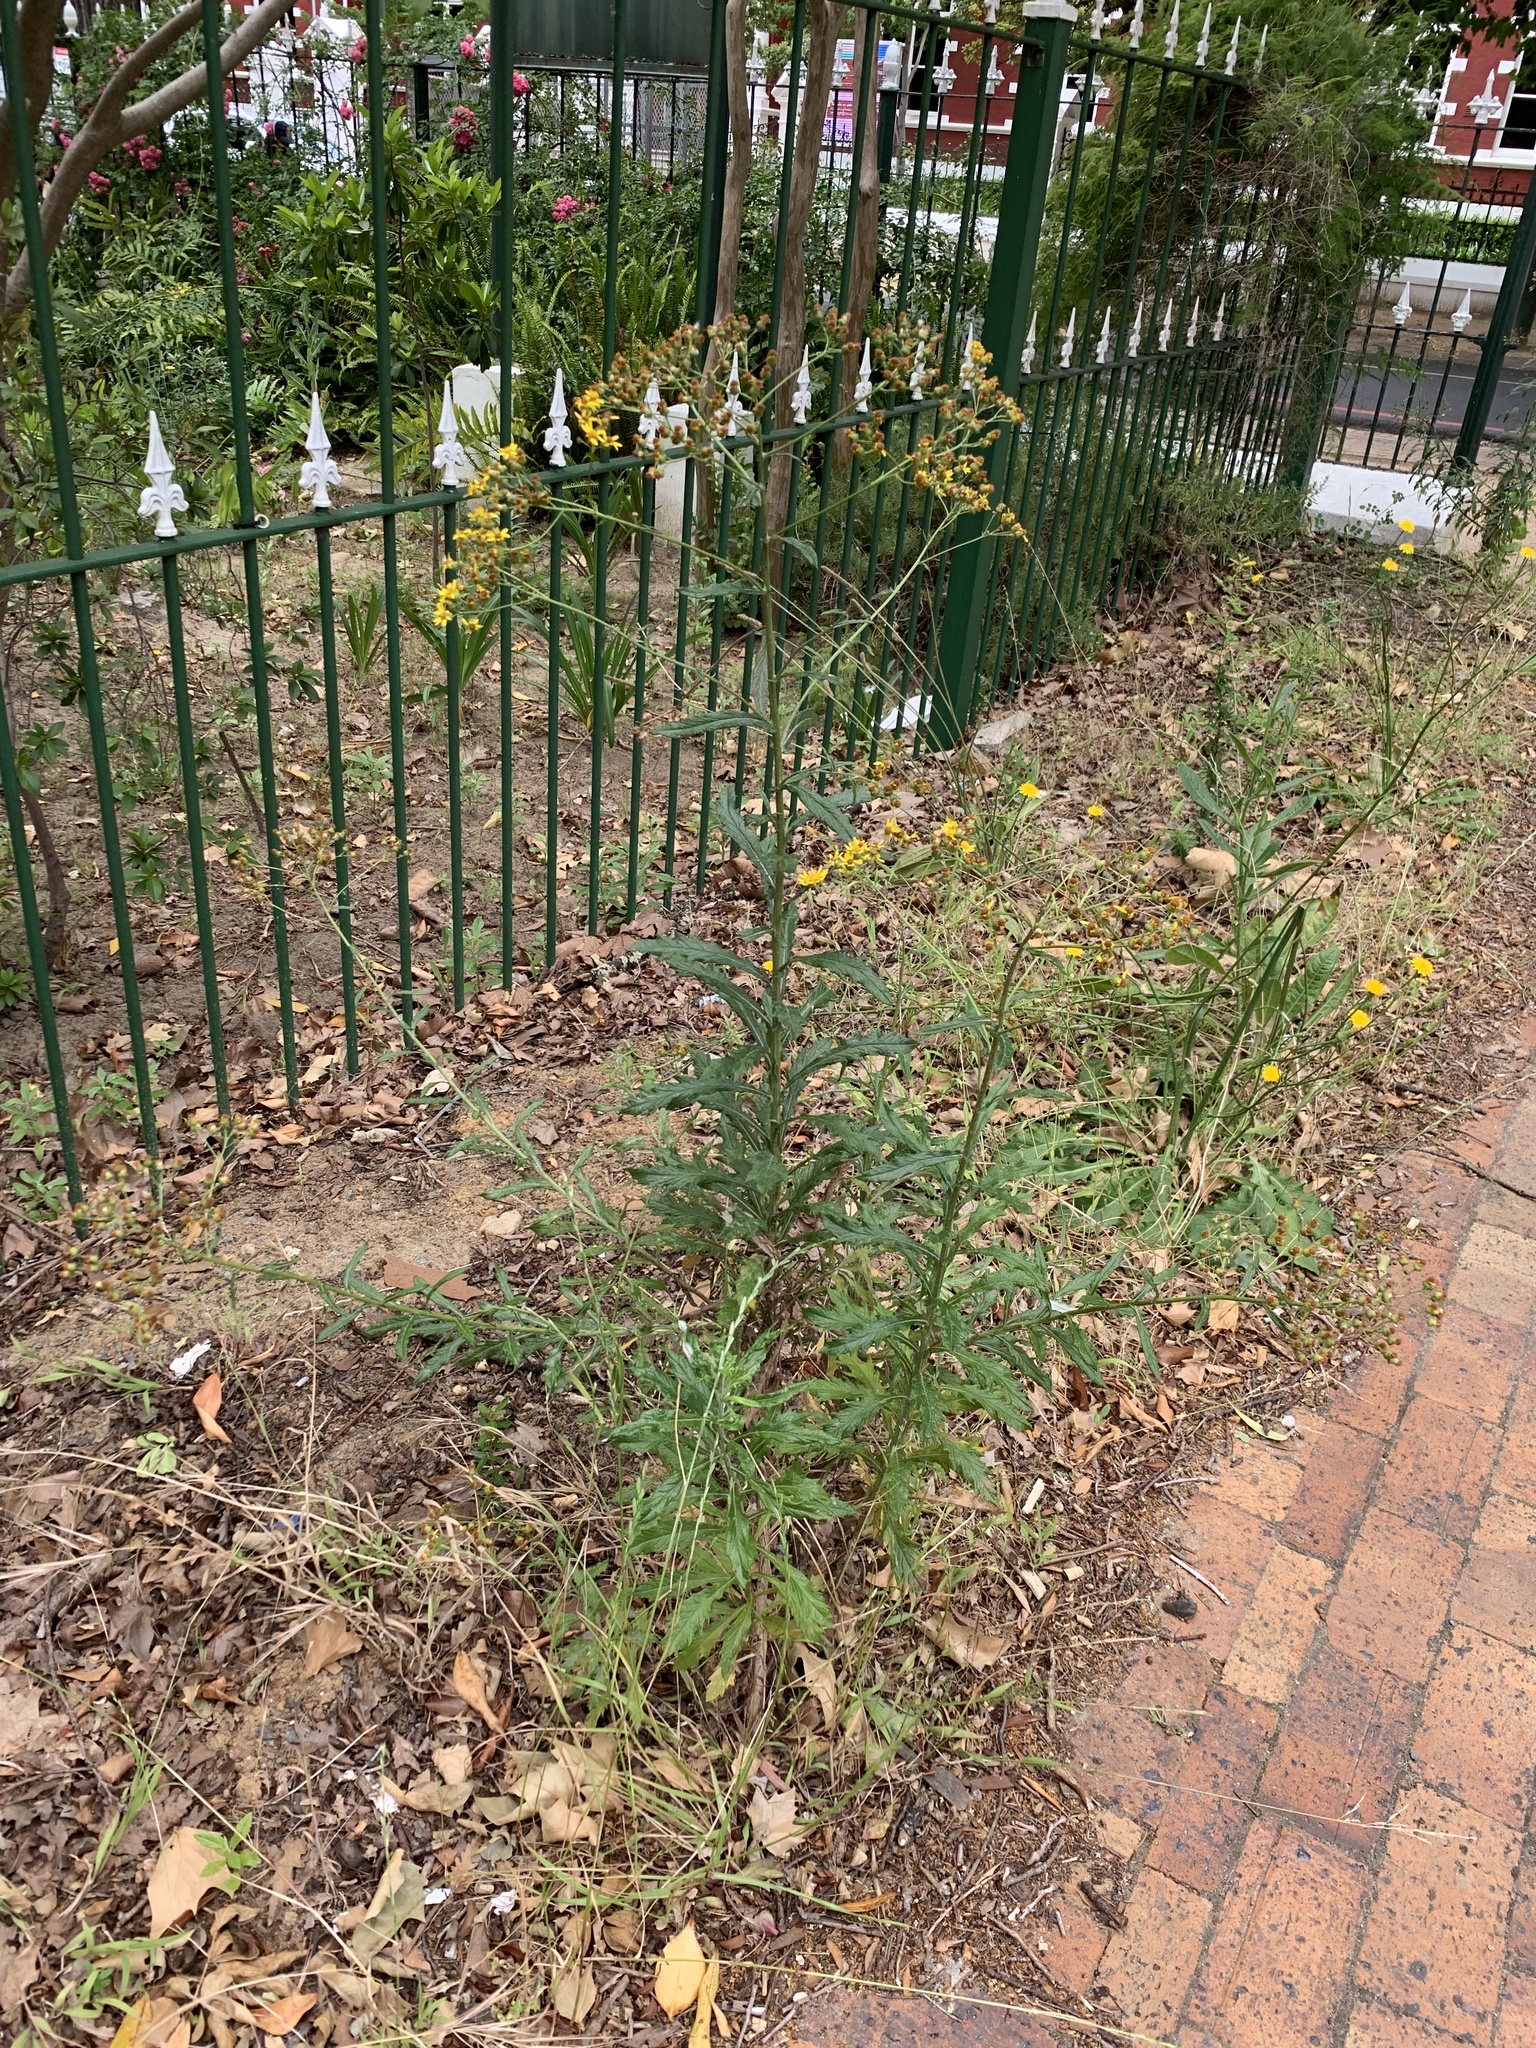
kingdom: Plantae
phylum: Tracheophyta
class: Magnoliopsida
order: Asterales
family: Asteraceae
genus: Senecio
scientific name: Senecio pterophorus
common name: Shoddy ragwort
